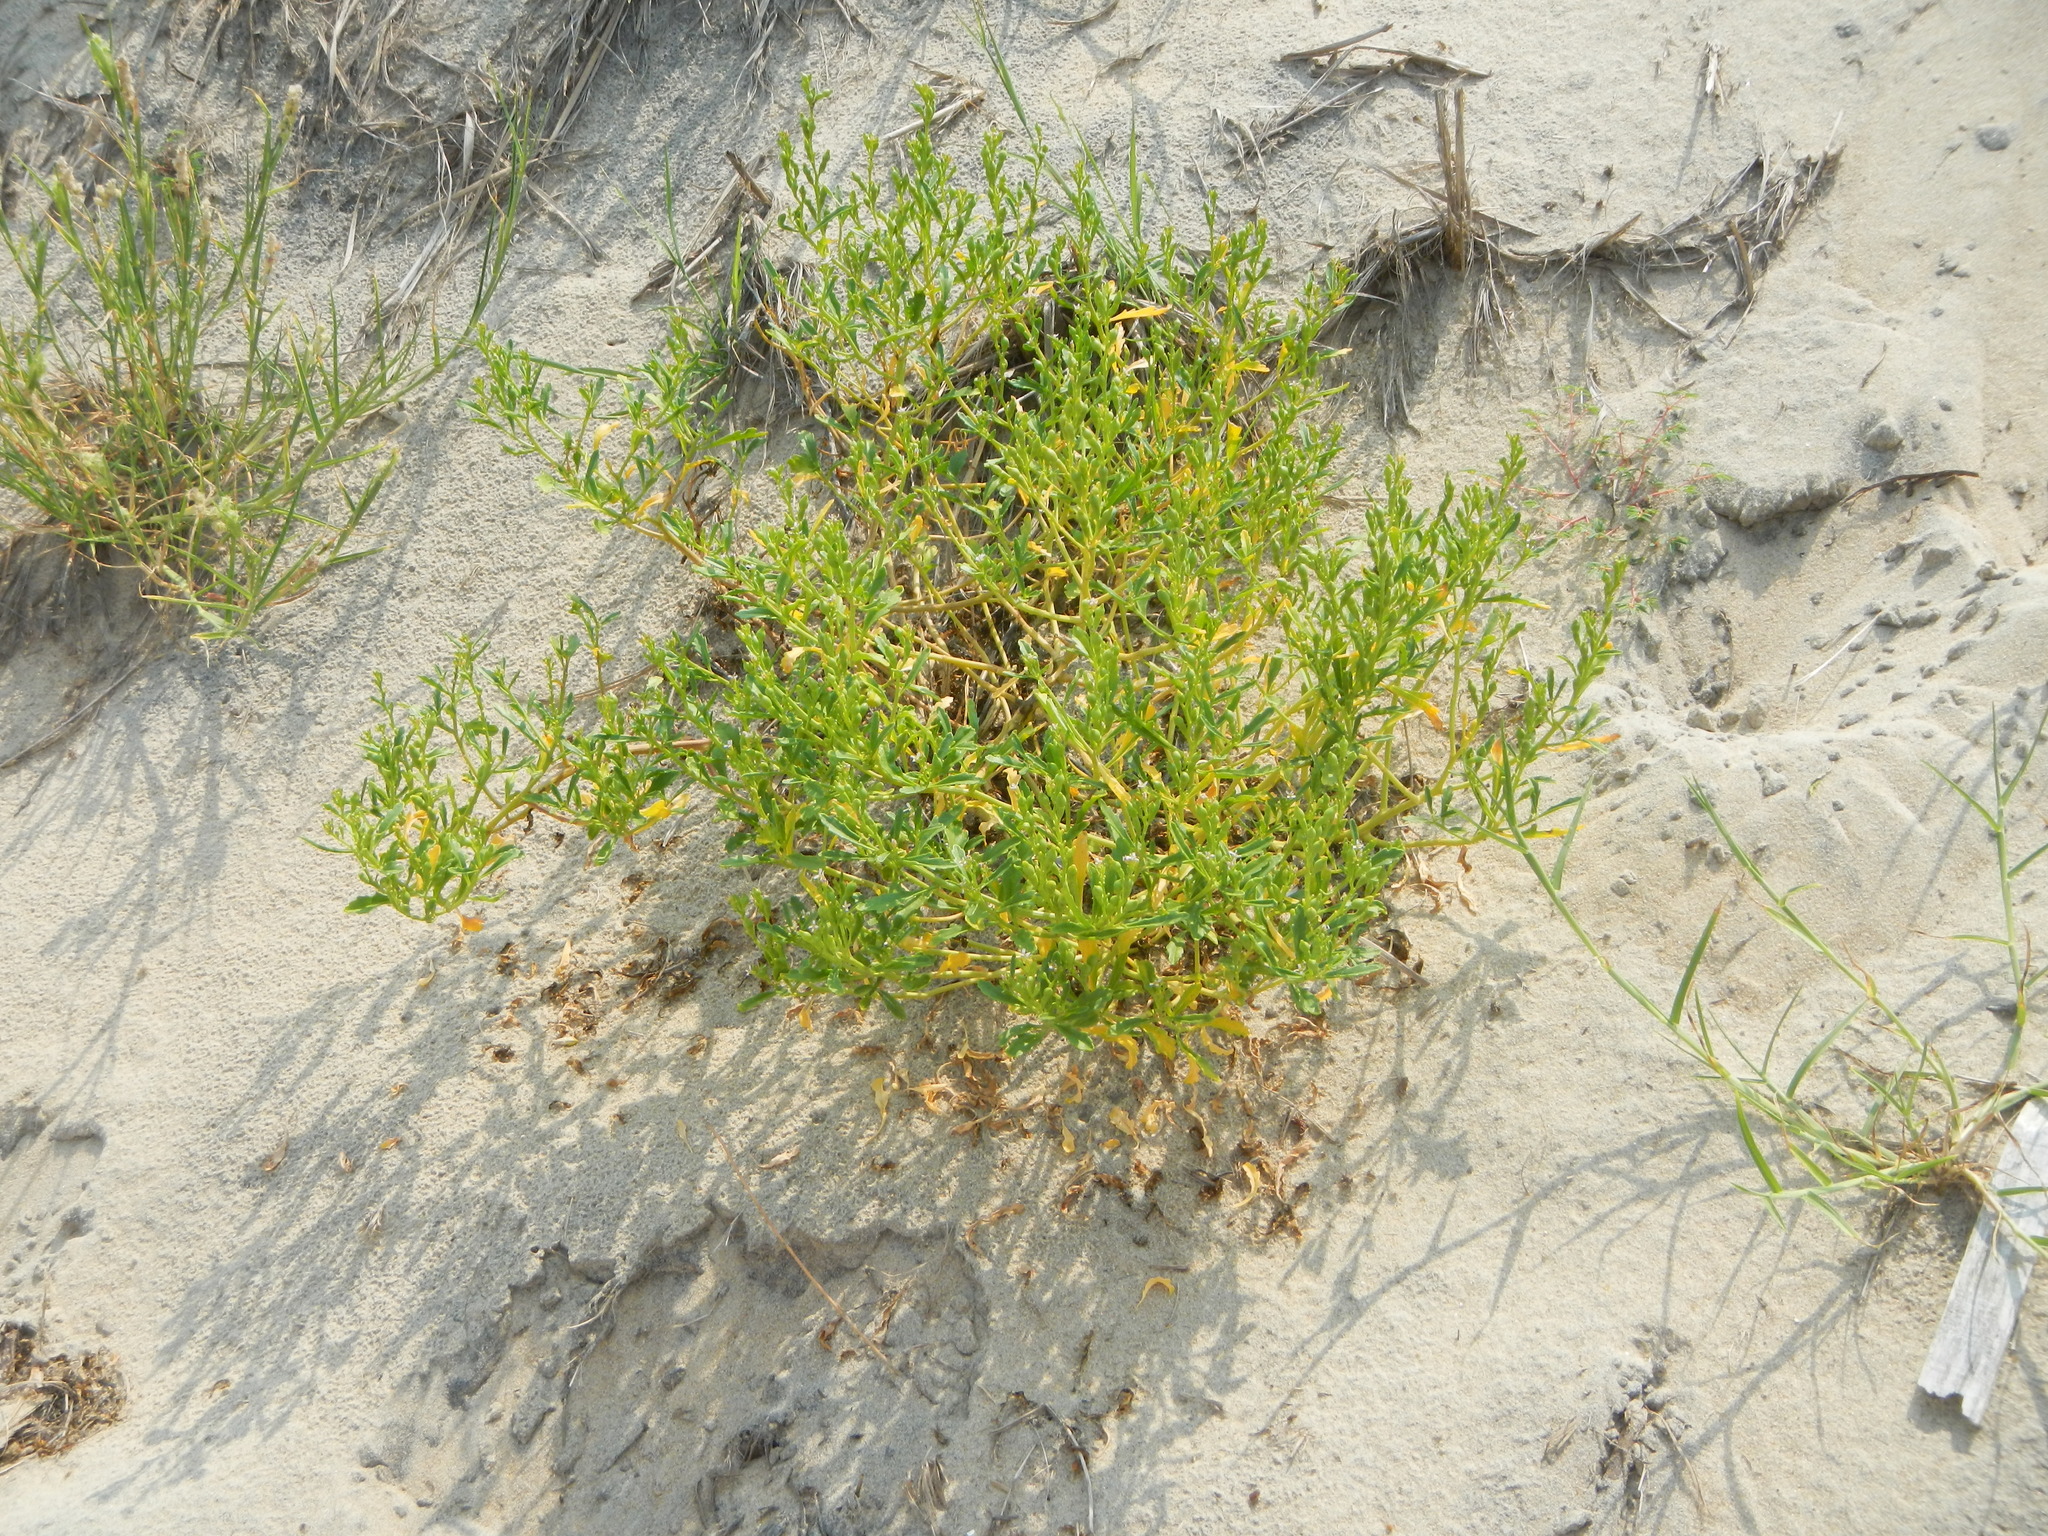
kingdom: Plantae
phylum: Tracheophyta
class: Magnoliopsida
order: Brassicales
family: Brassicaceae
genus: Cakile
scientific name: Cakile edentula
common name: American sea rocket
